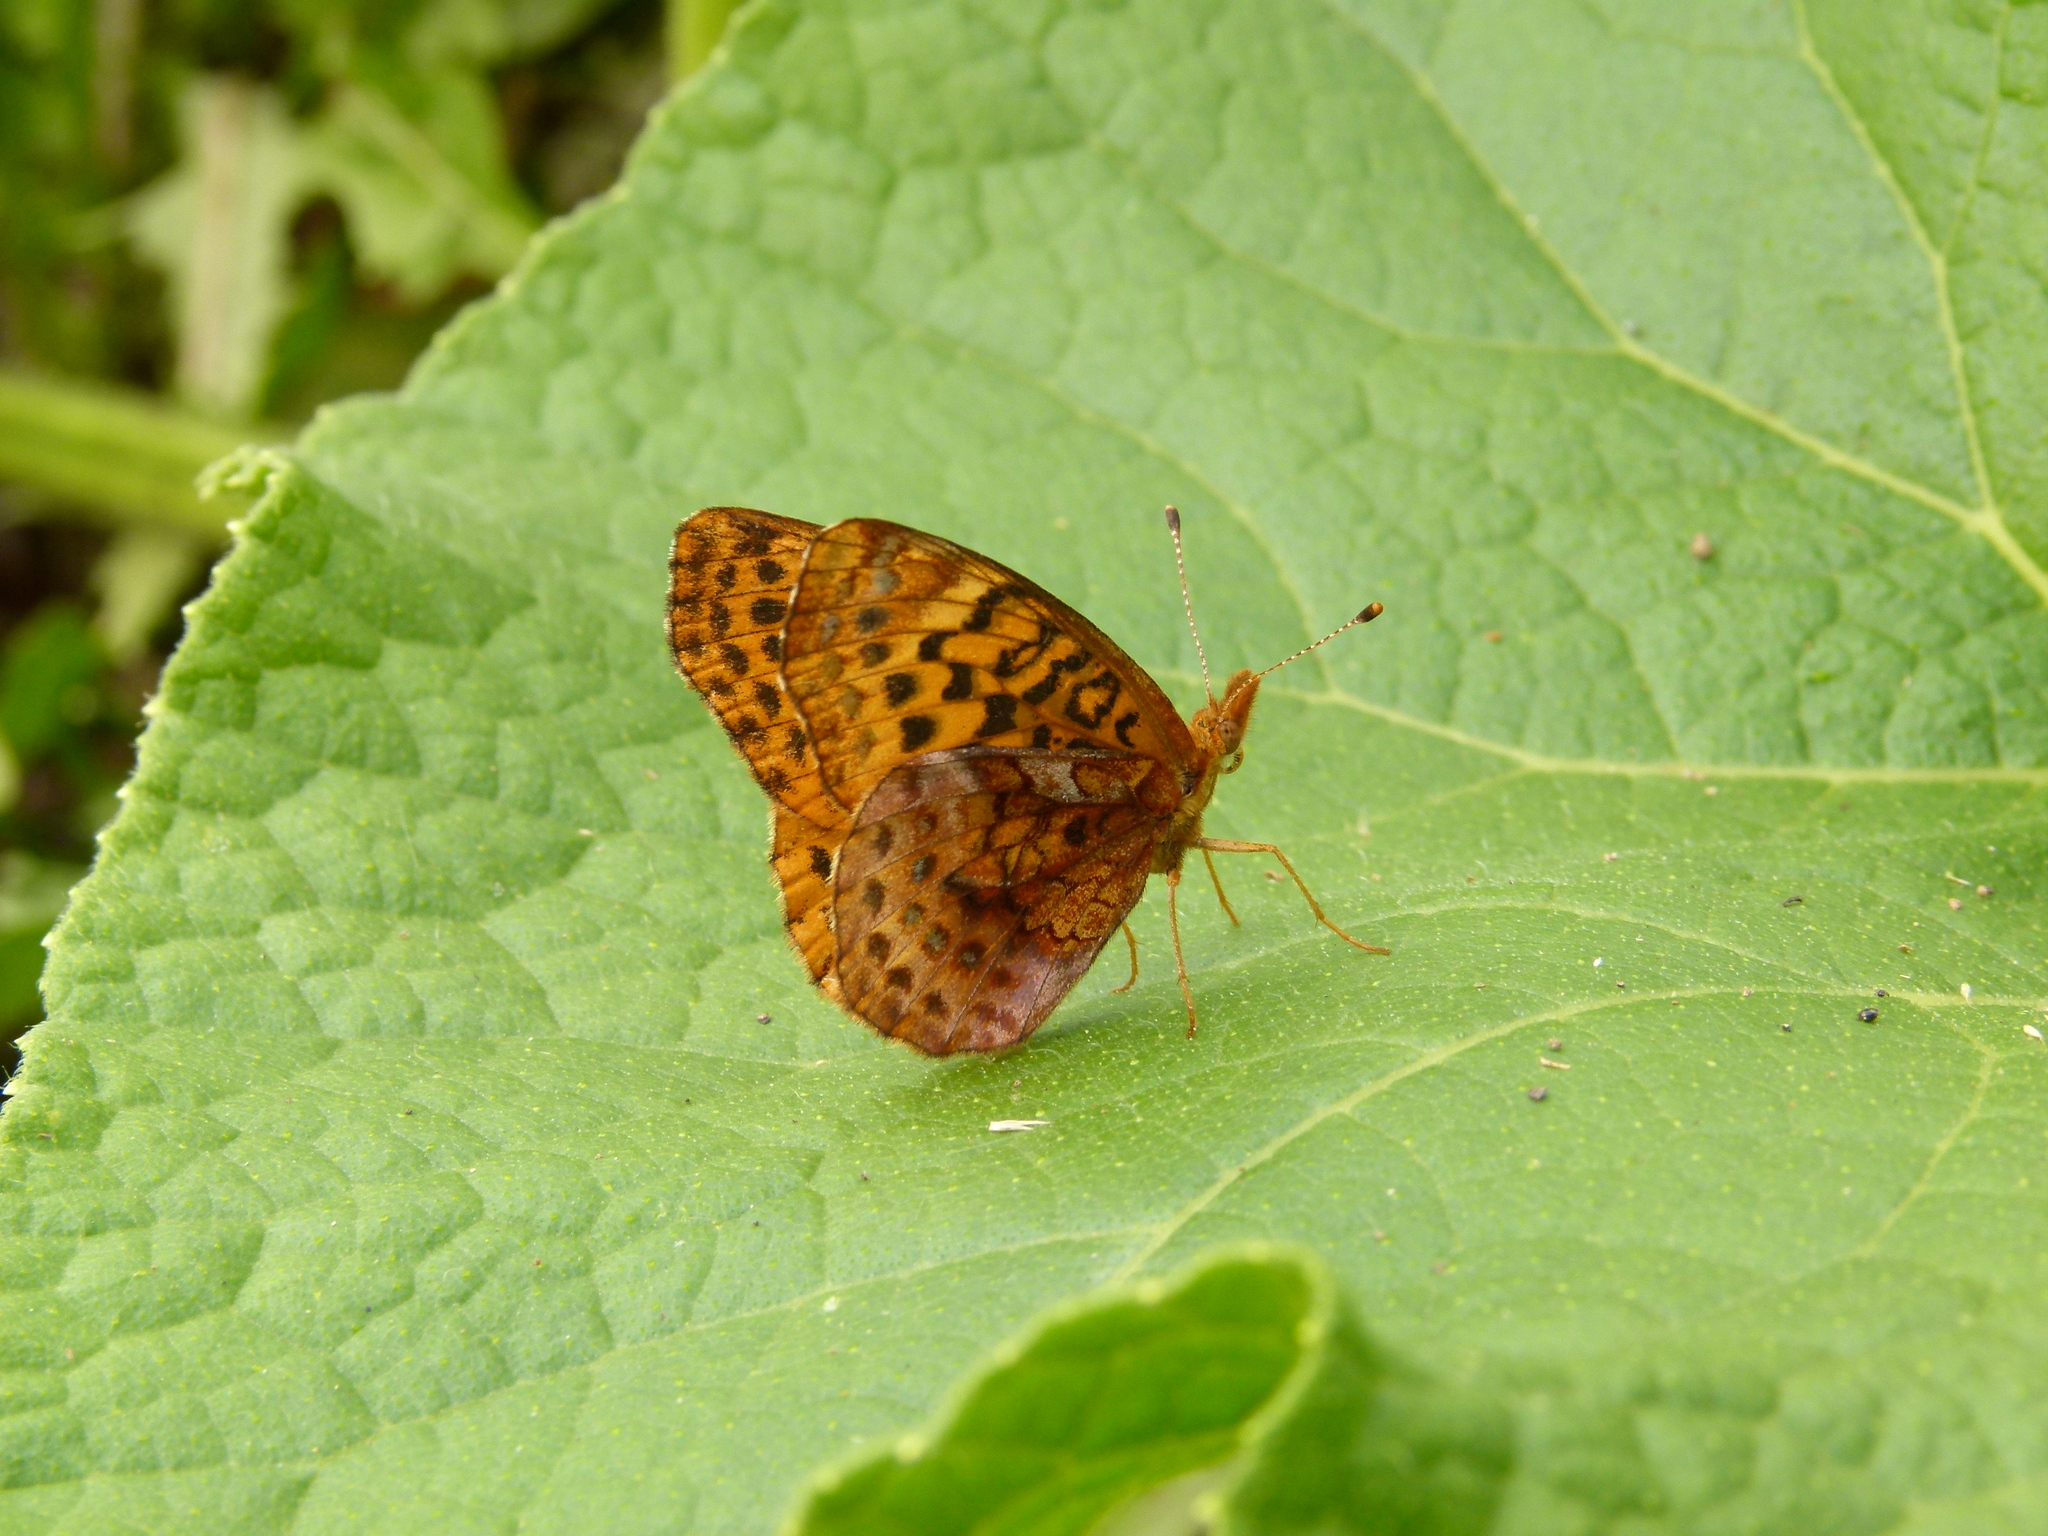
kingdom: Animalia
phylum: Arthropoda
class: Insecta
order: Lepidoptera
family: Nymphalidae
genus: Clossiana
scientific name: Clossiana toddi
